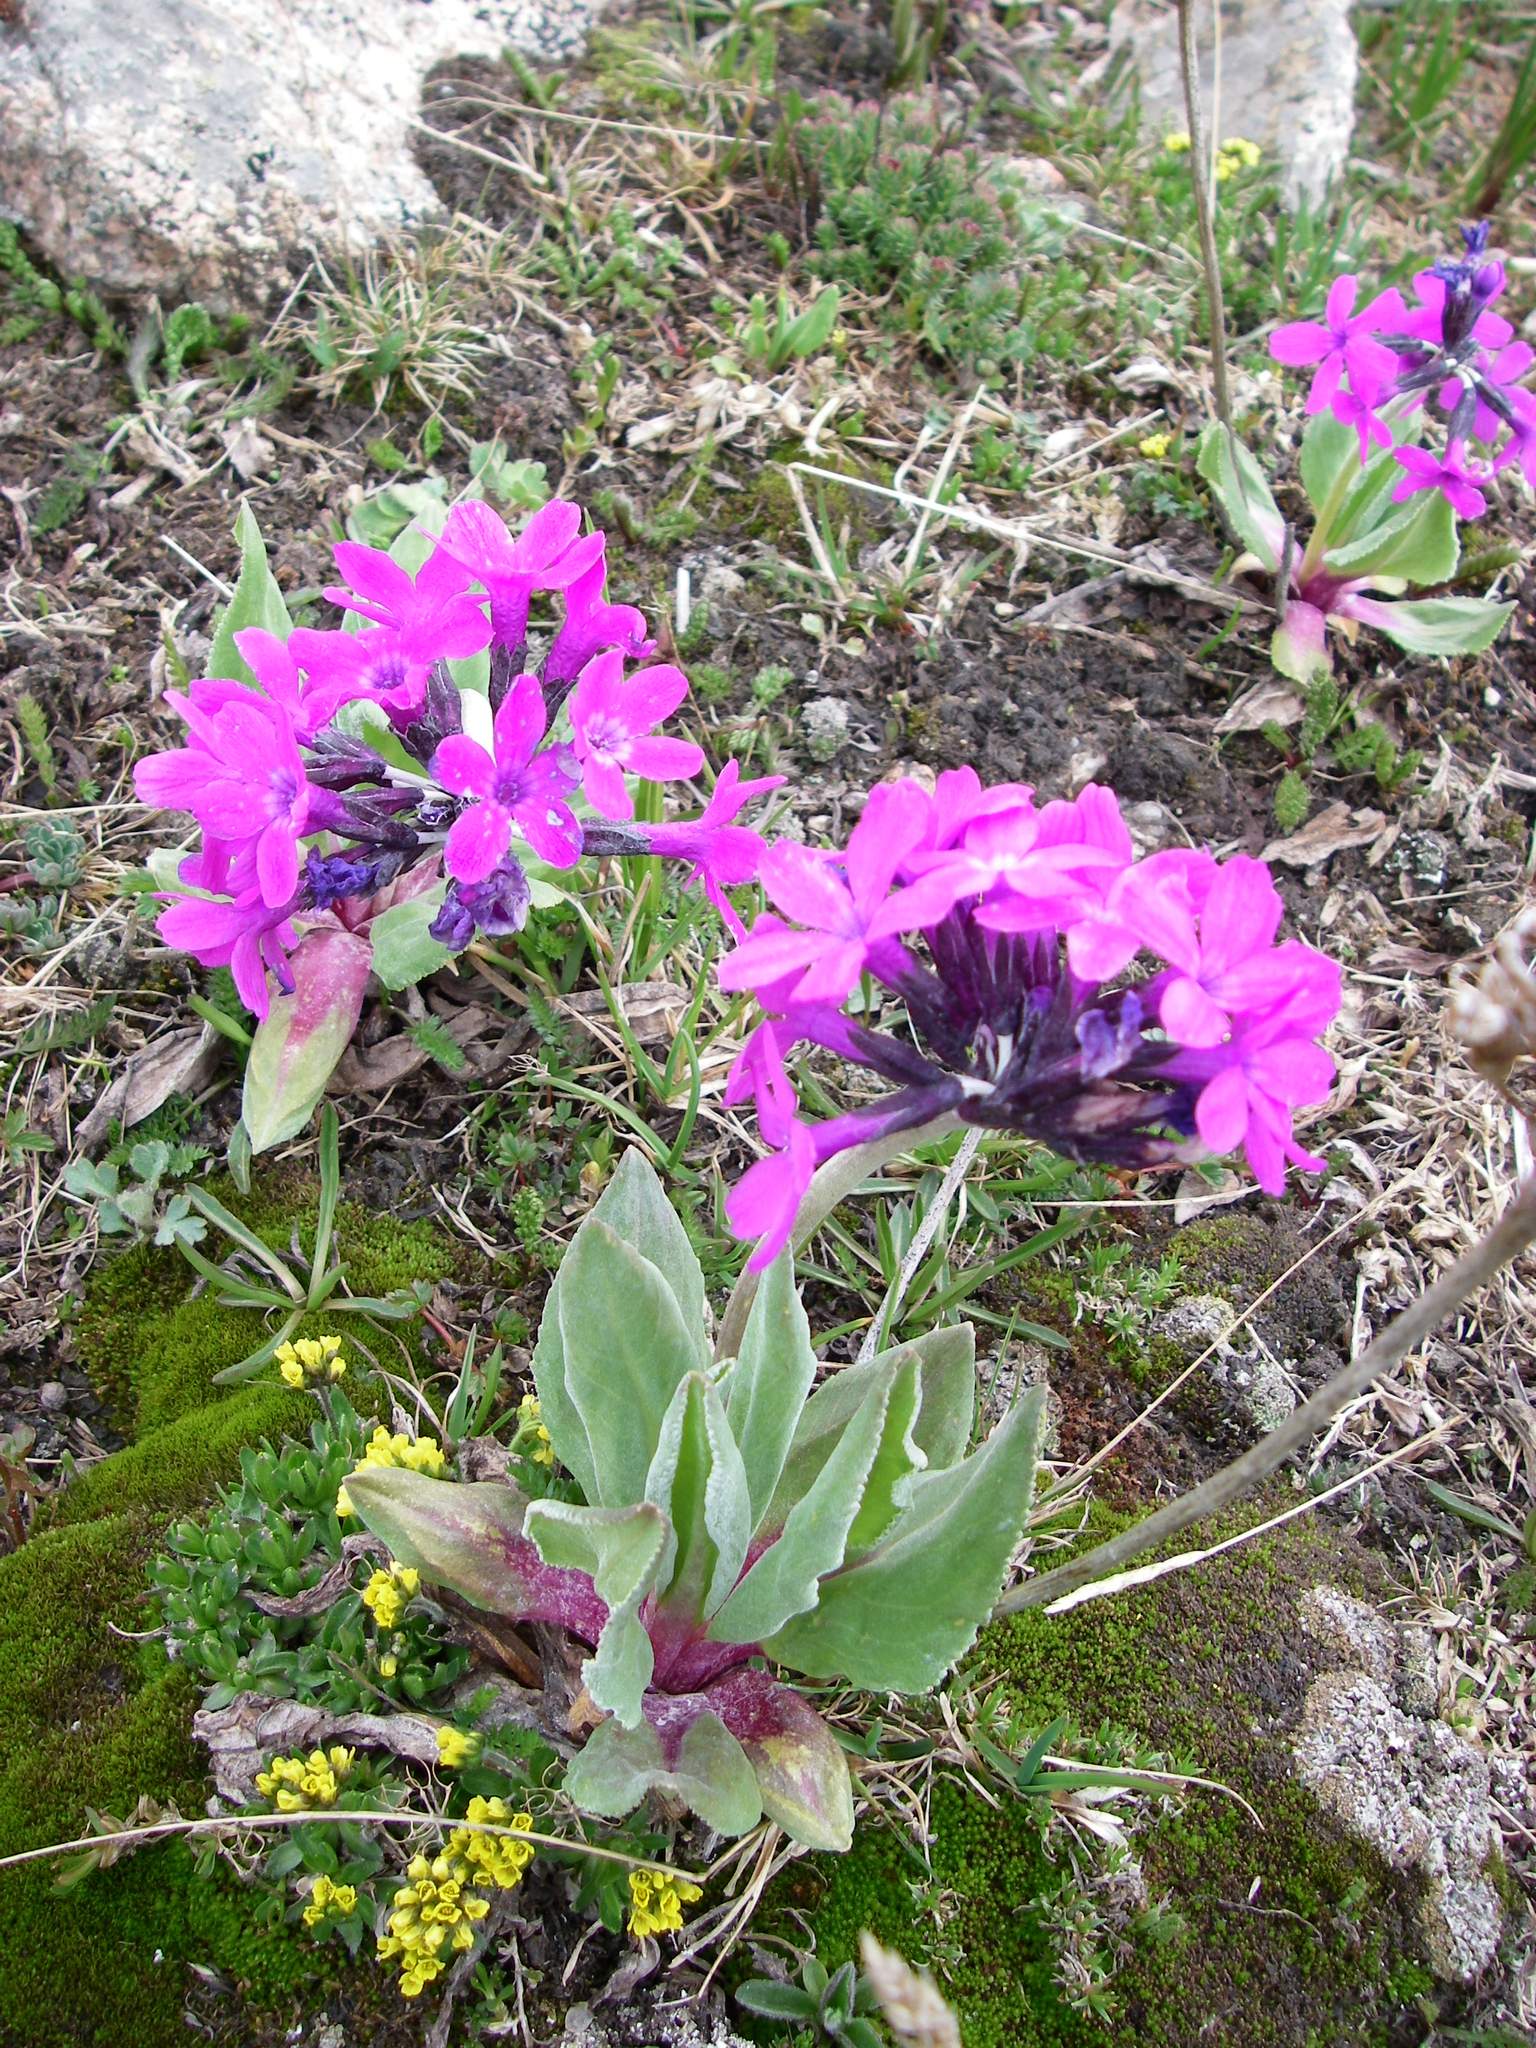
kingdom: Plantae
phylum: Tracheophyta
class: Magnoliopsida
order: Ericales
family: Primulaceae
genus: Primula
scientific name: Primula nivalis
